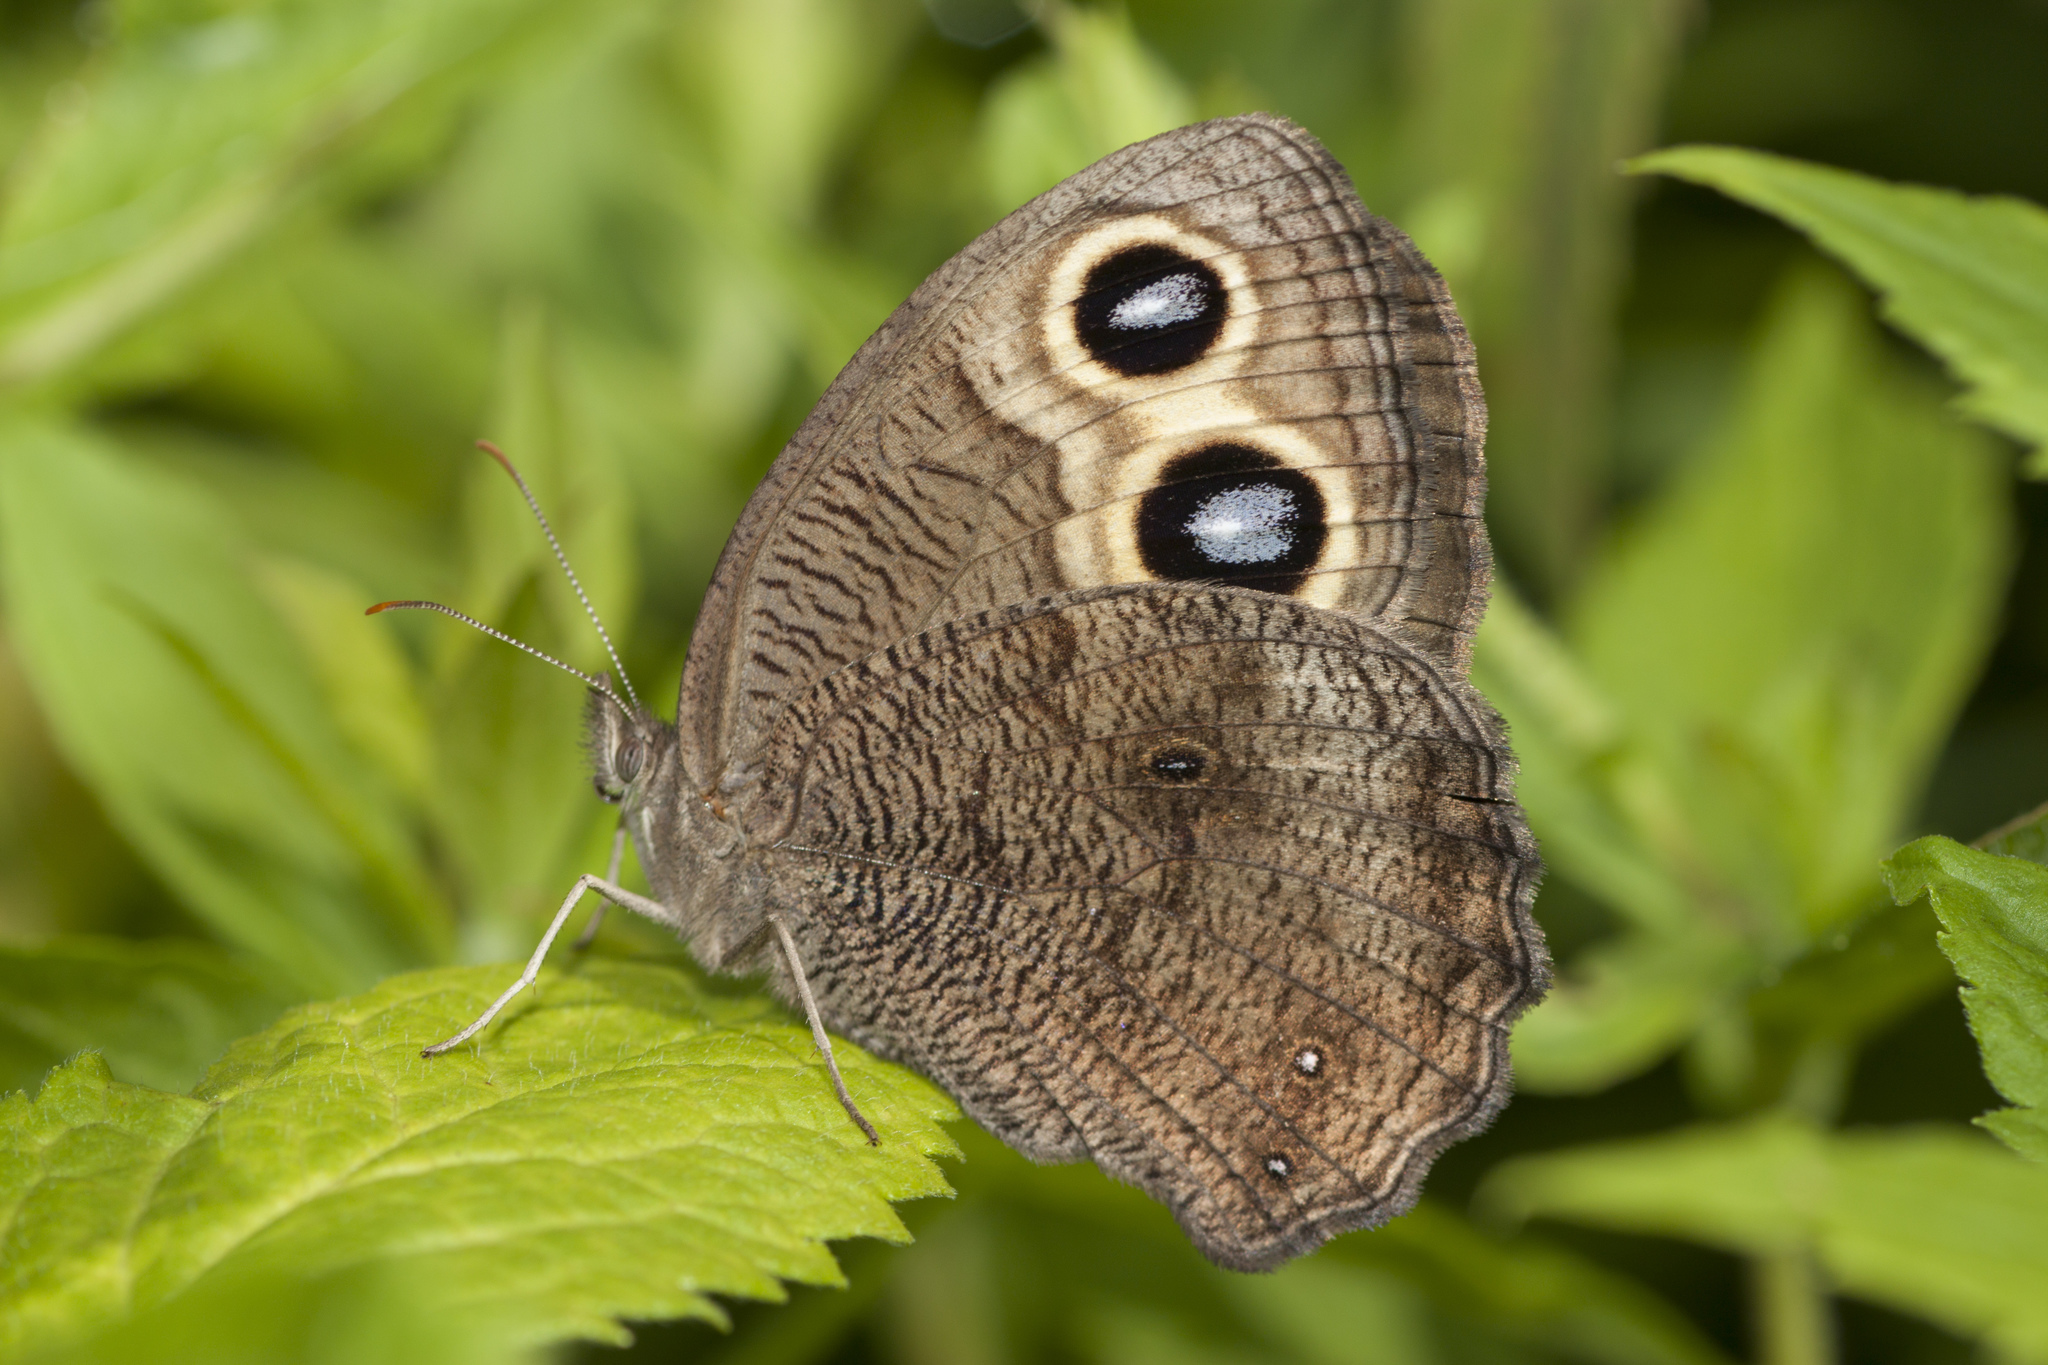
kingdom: Animalia
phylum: Arthropoda
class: Insecta
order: Lepidoptera
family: Nymphalidae
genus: Cercyonis
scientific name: Cercyonis pegala
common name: Common wood-nymph
